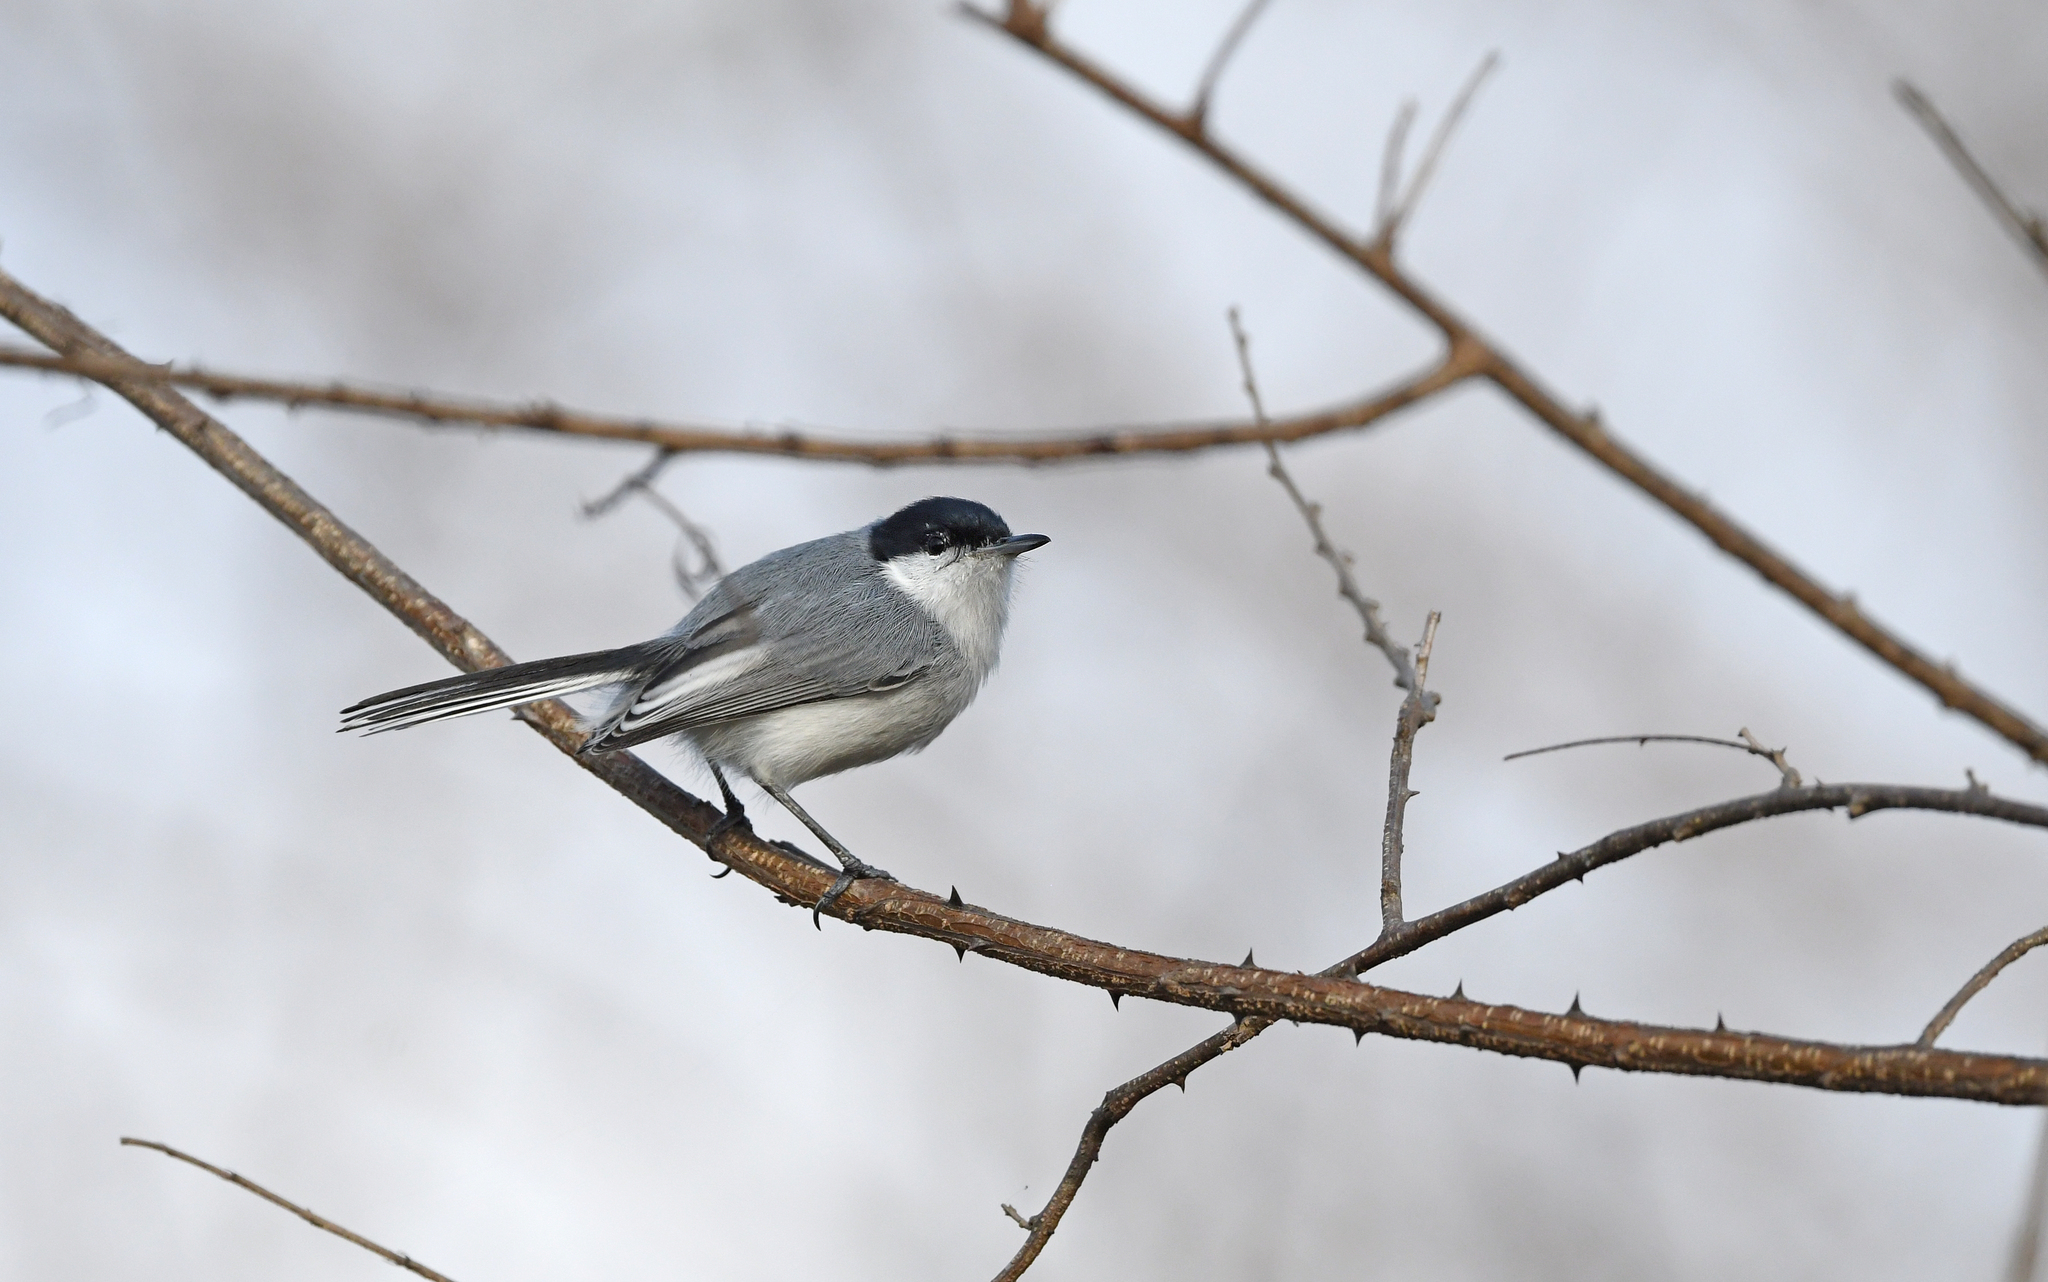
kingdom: Animalia
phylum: Chordata
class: Aves
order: Passeriformes
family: Polioptilidae
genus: Polioptila
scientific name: Polioptila plumbea
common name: Tropical gnatcatcher
